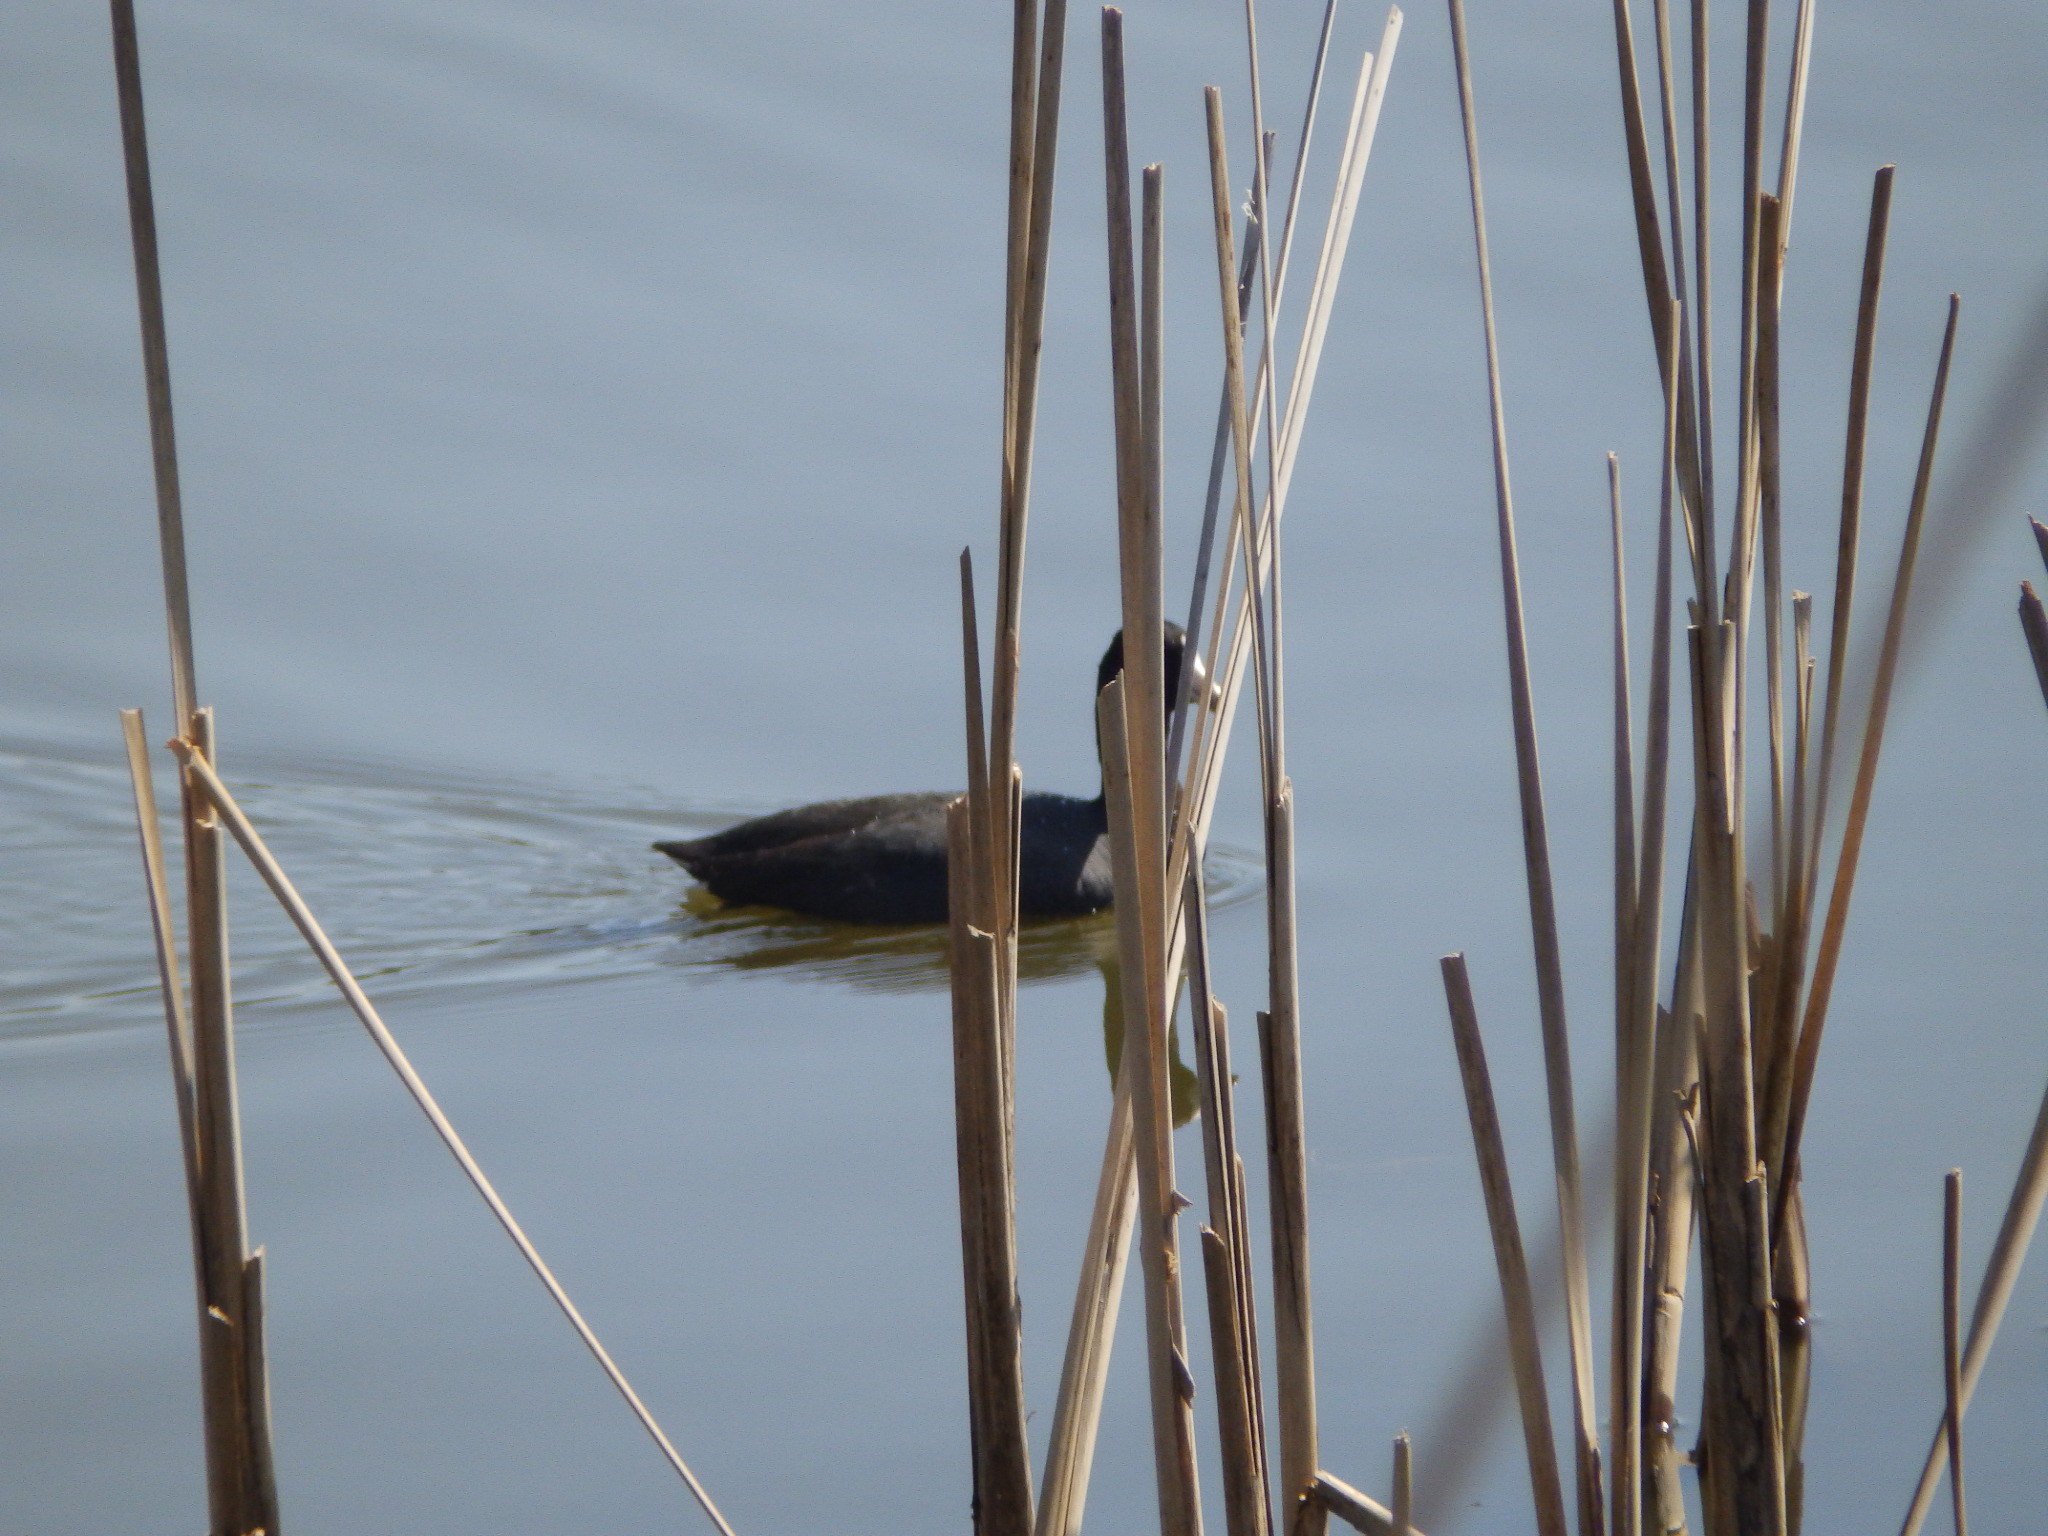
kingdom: Animalia
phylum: Chordata
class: Aves
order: Gruiformes
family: Rallidae
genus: Fulica
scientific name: Fulica americana
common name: American coot
